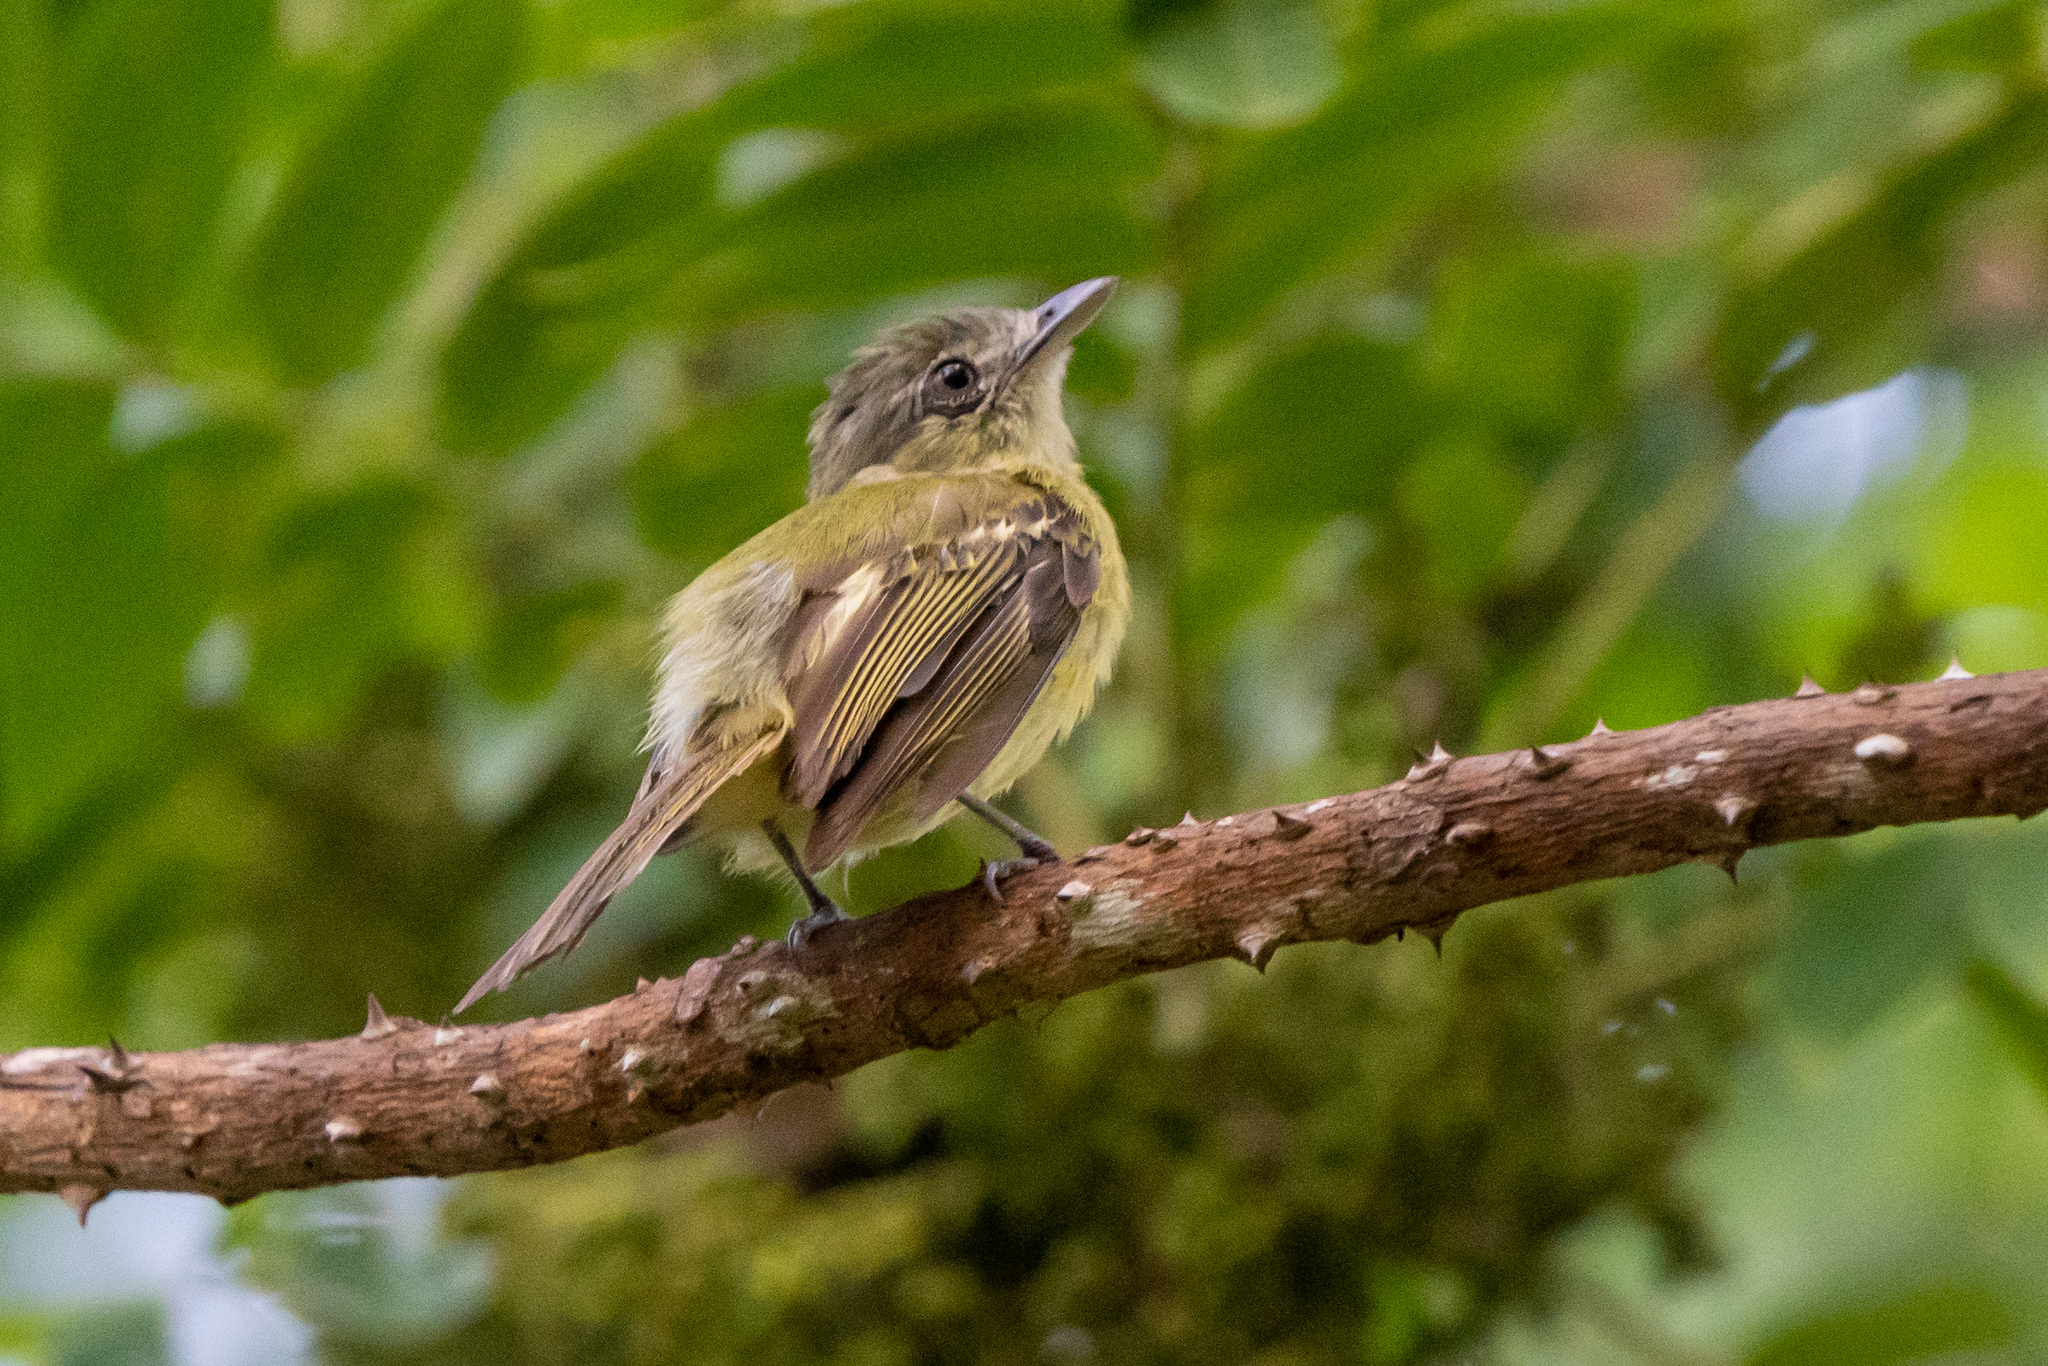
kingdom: Animalia
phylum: Chordata
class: Aves
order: Passeriformes
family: Tyrannidae
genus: Tolmomyias
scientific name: Tolmomyias sulphurescens
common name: Yellow-olive flycatcher
